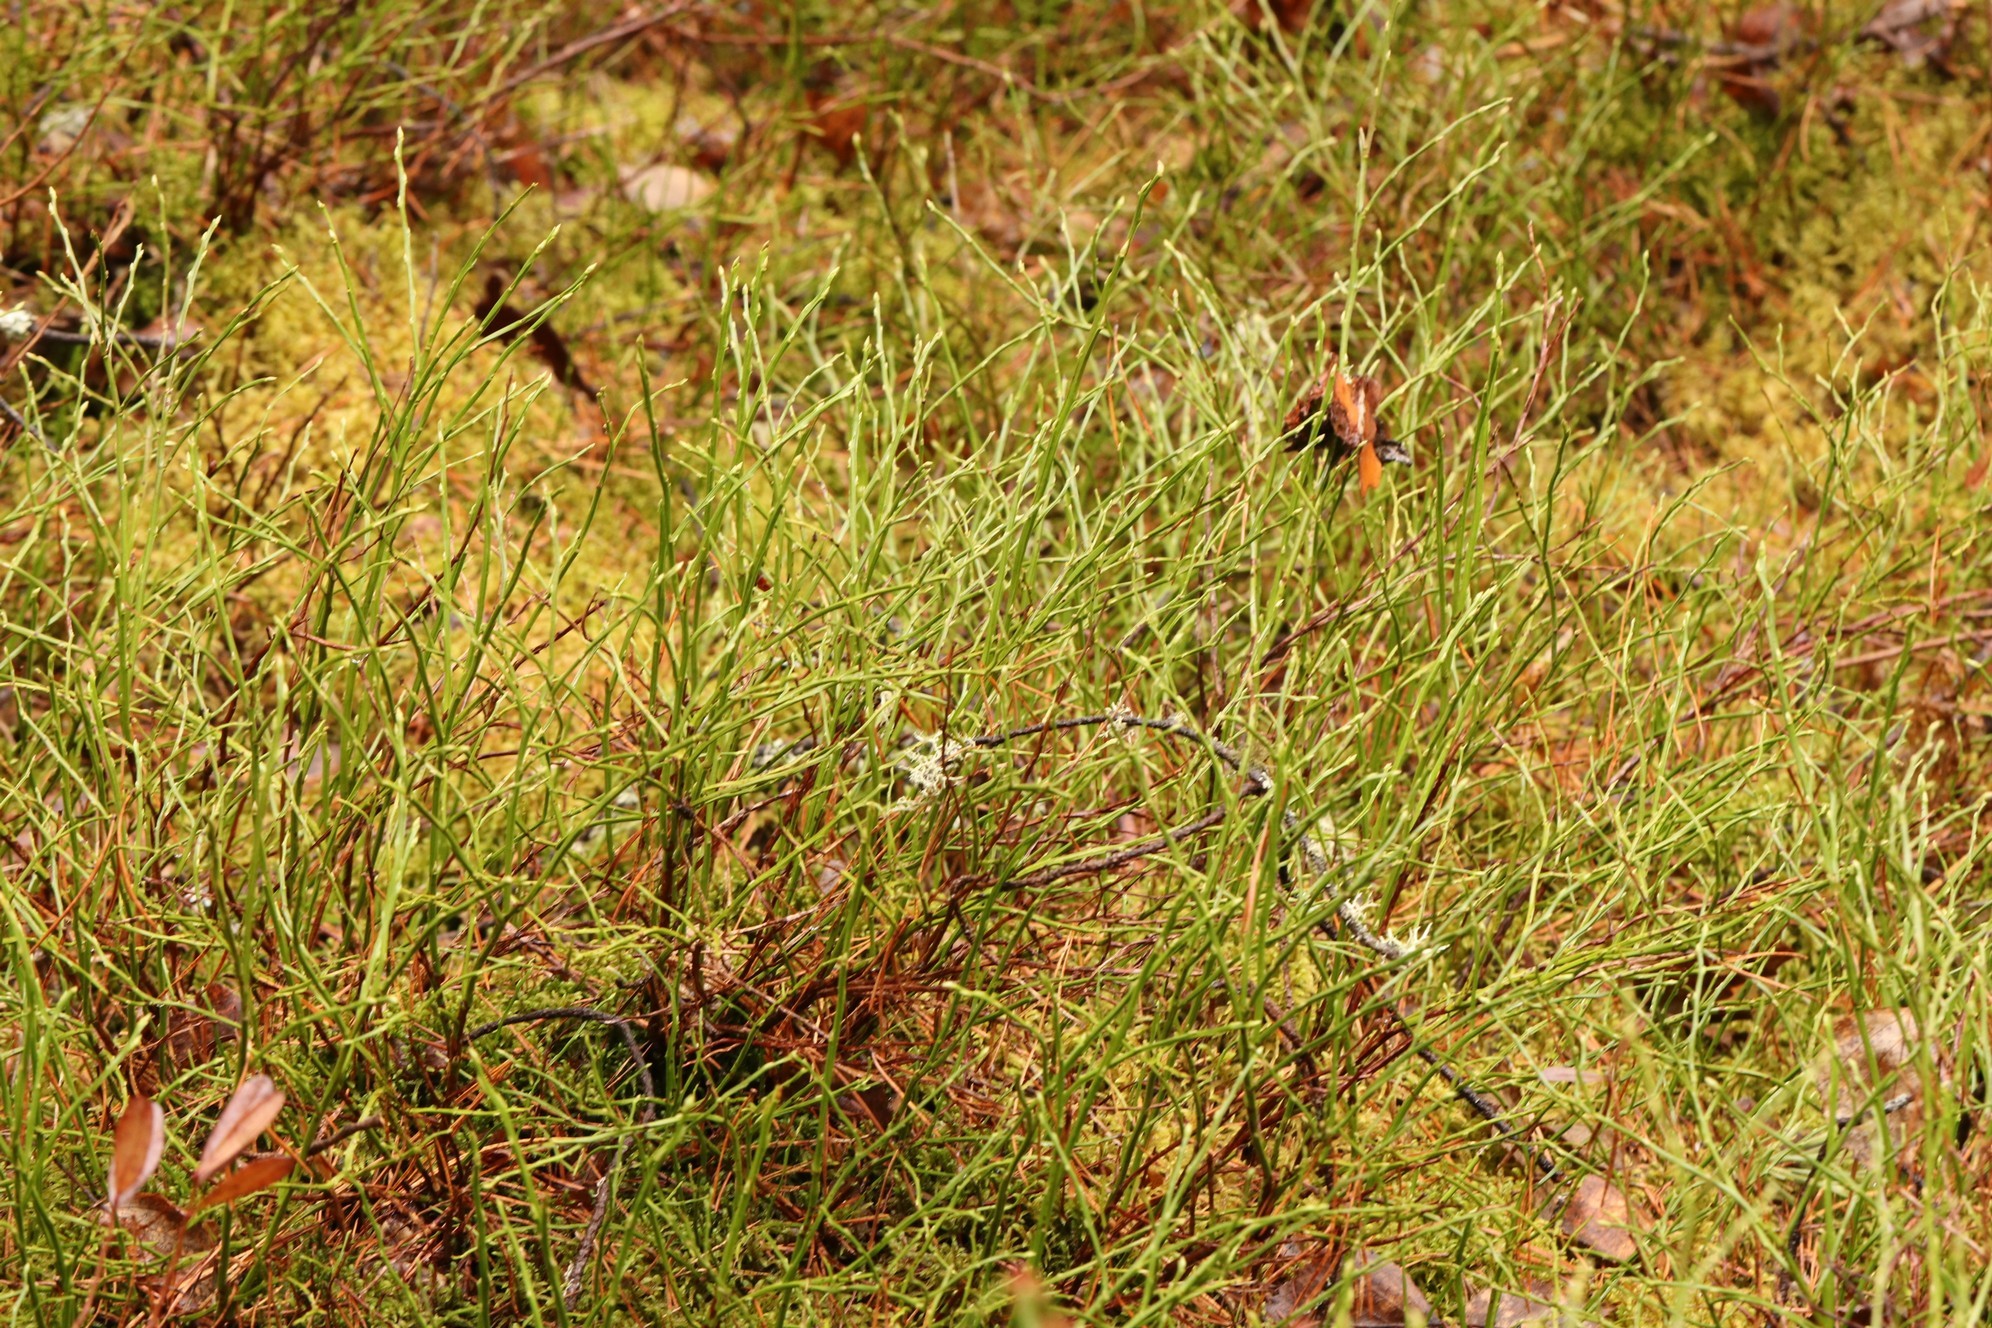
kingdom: Plantae
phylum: Tracheophyta
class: Magnoliopsida
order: Ericales
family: Ericaceae
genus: Vaccinium
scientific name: Vaccinium myrtillus
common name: Bilberry
